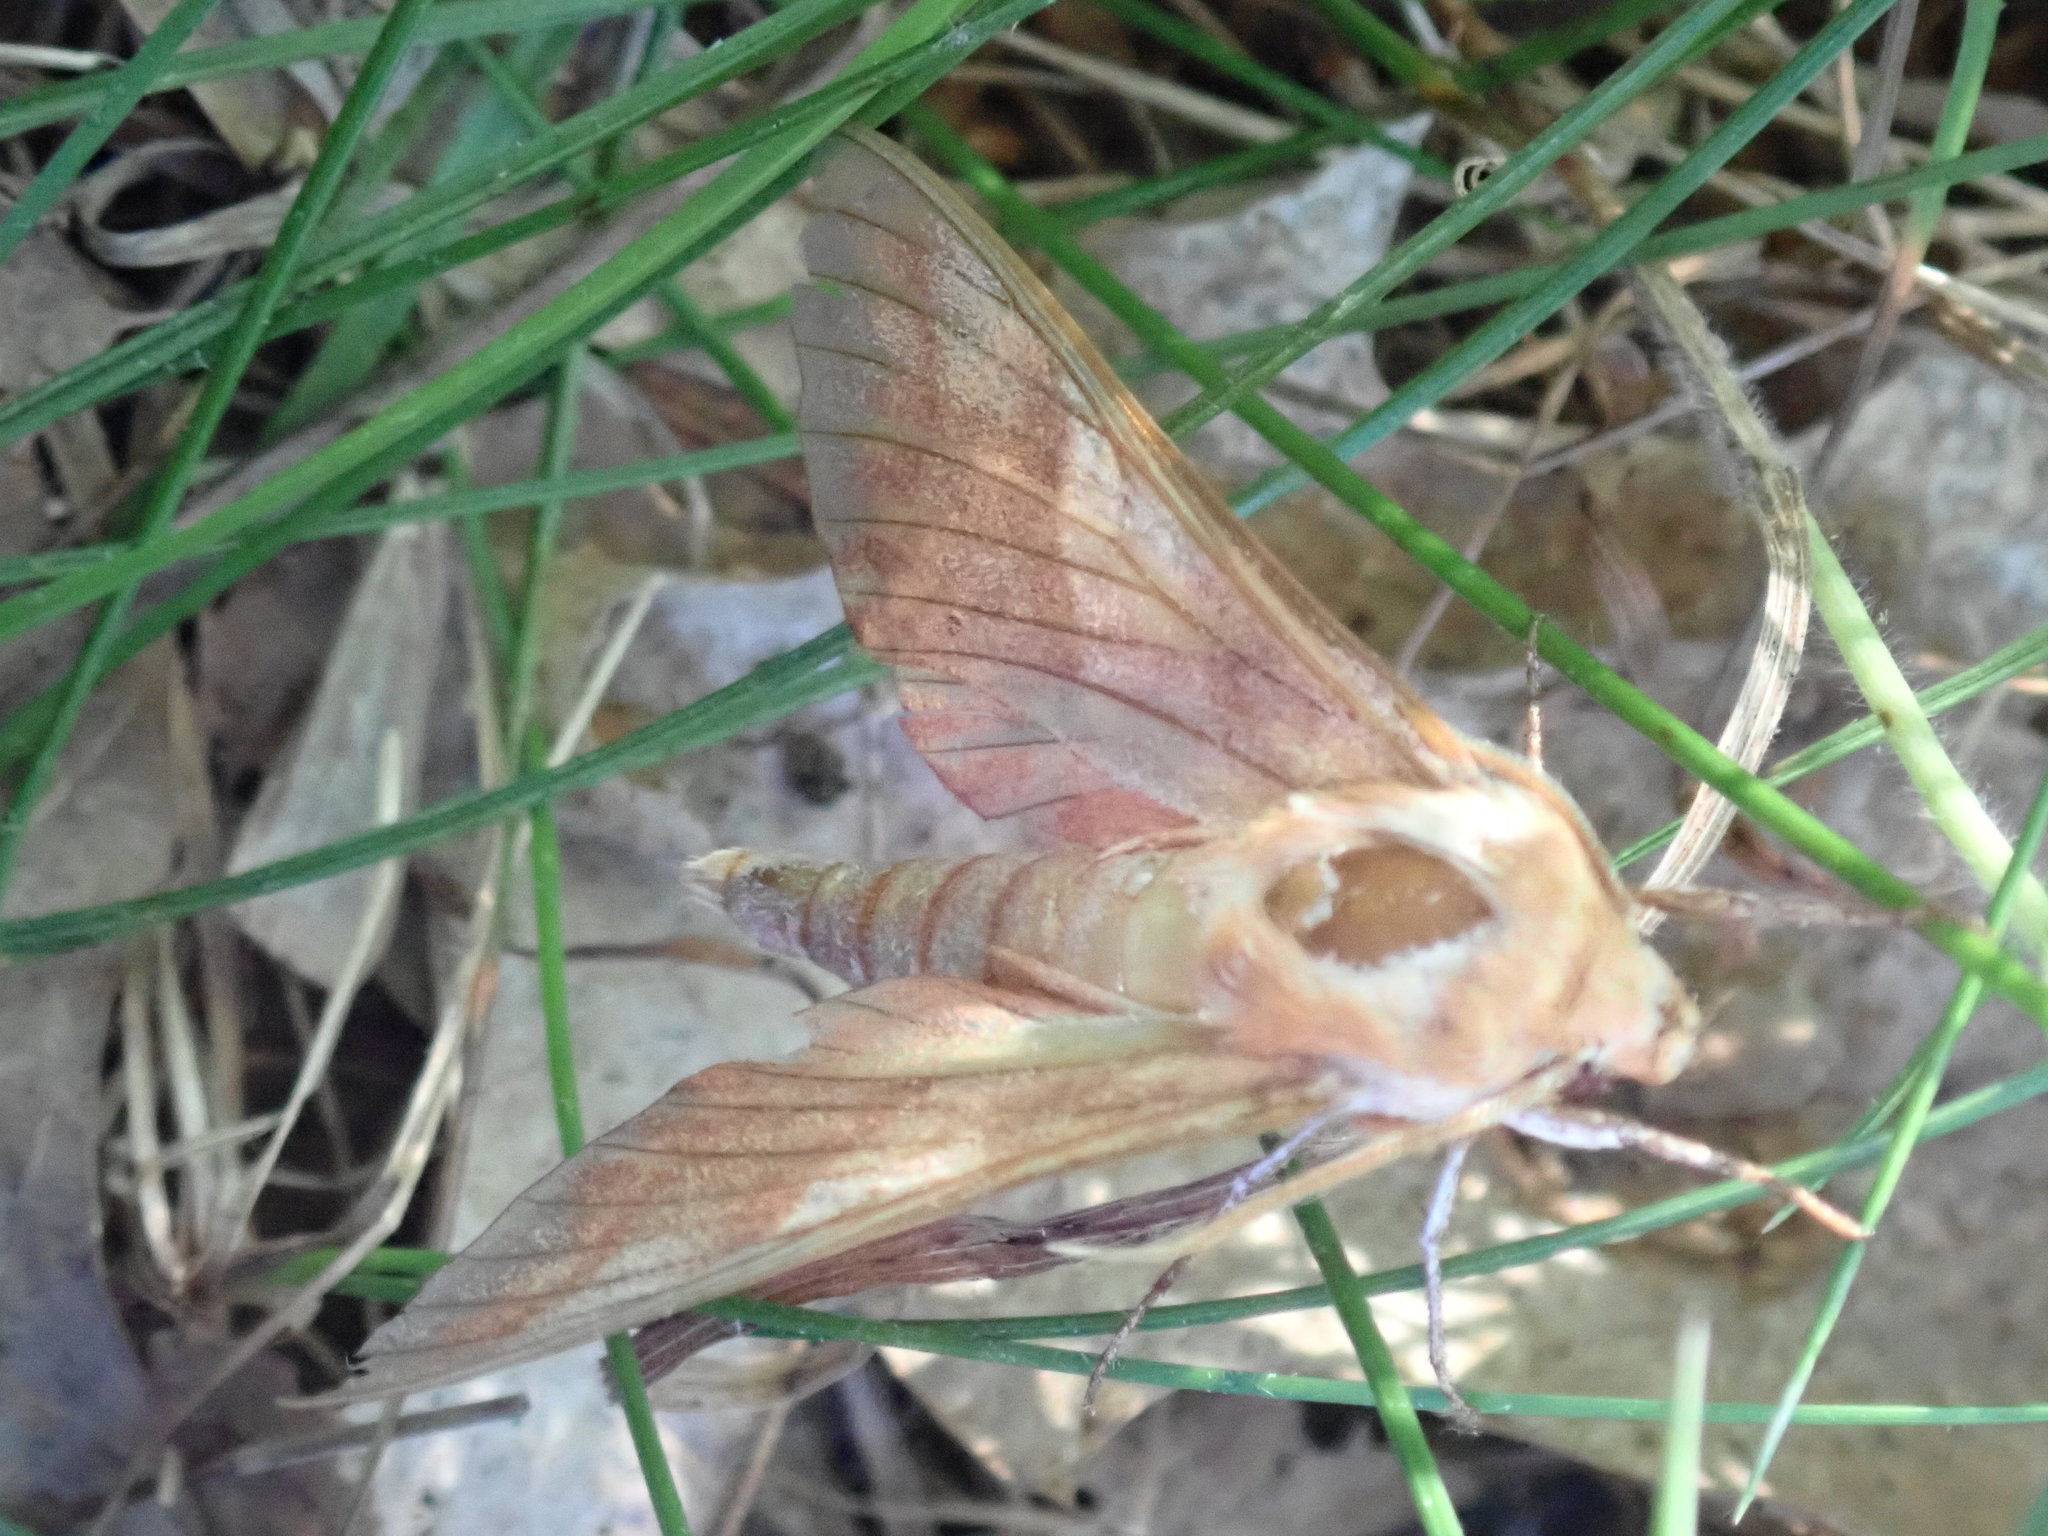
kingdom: Animalia
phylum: Arthropoda
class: Insecta
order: Lepidoptera
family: Sphingidae
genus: Darapsa
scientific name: Darapsa choerilus
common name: Azalea sphinx
